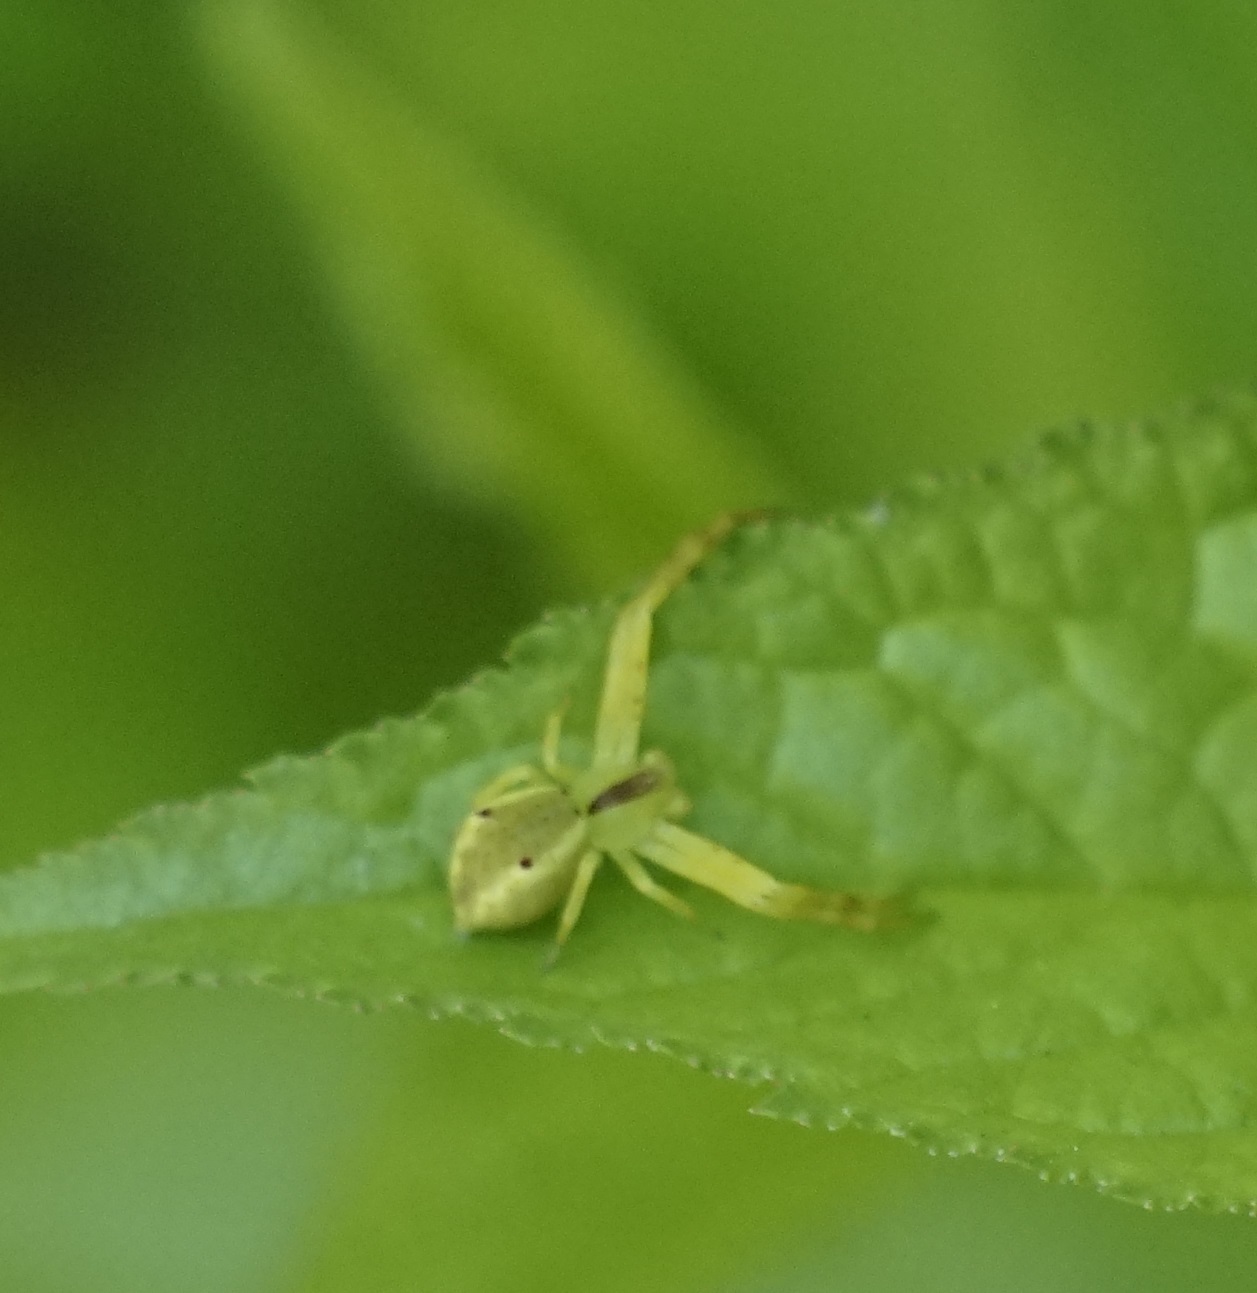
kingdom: Animalia
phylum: Arthropoda
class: Arachnida
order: Araneae
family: Thomisidae
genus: Sidymella
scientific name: Sidymella rubrosignata
